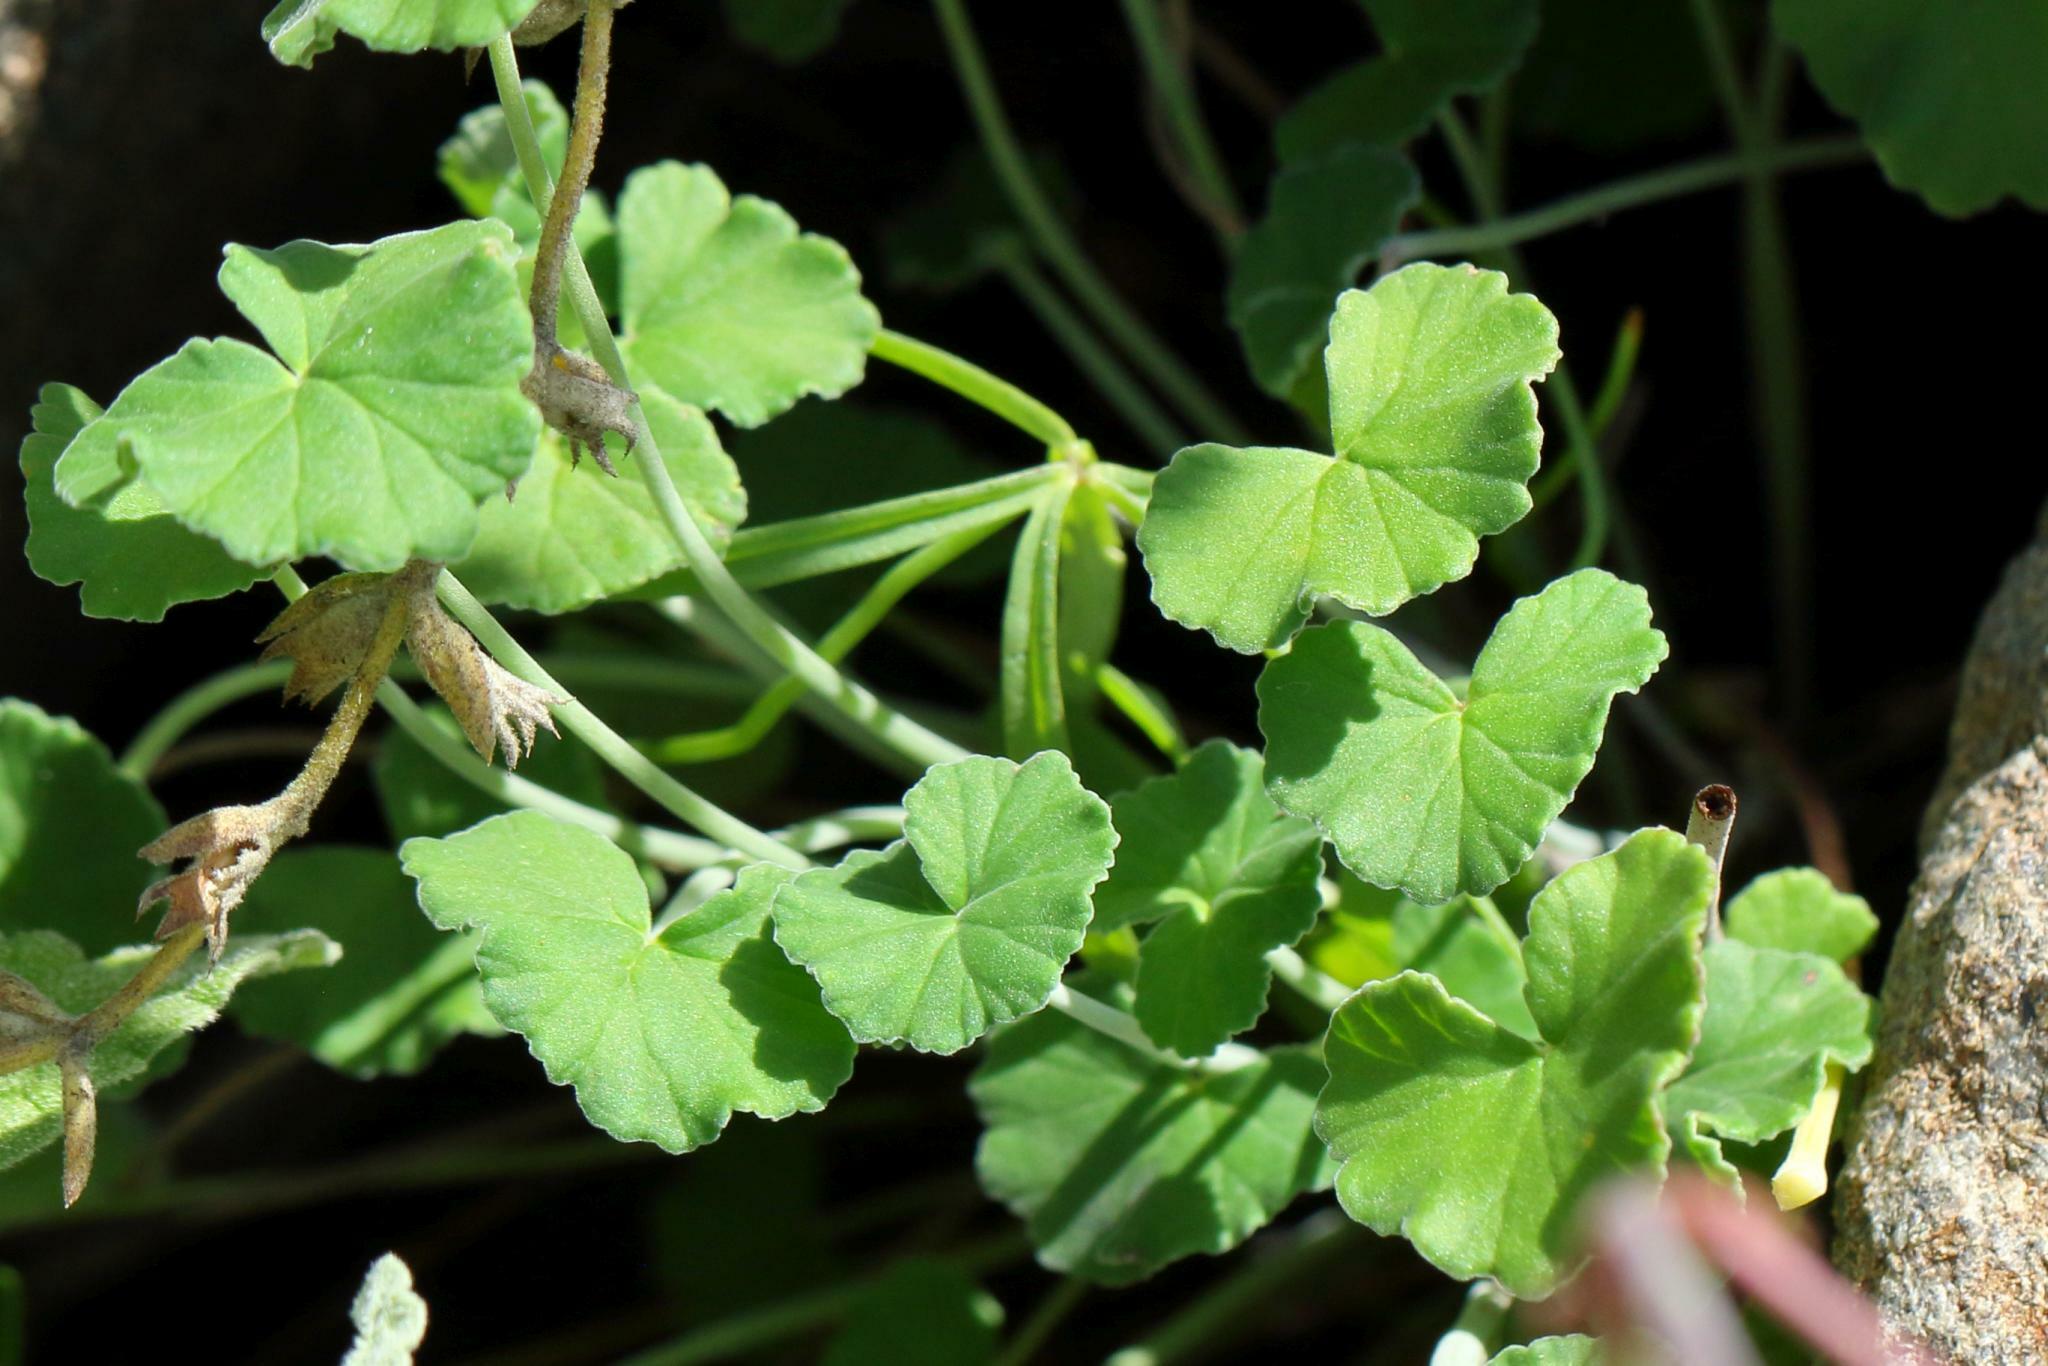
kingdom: Plantae
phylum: Tracheophyta
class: Magnoliopsida
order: Geraniales
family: Geraniaceae
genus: Pelargonium
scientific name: Pelargonium dichondrifolium
